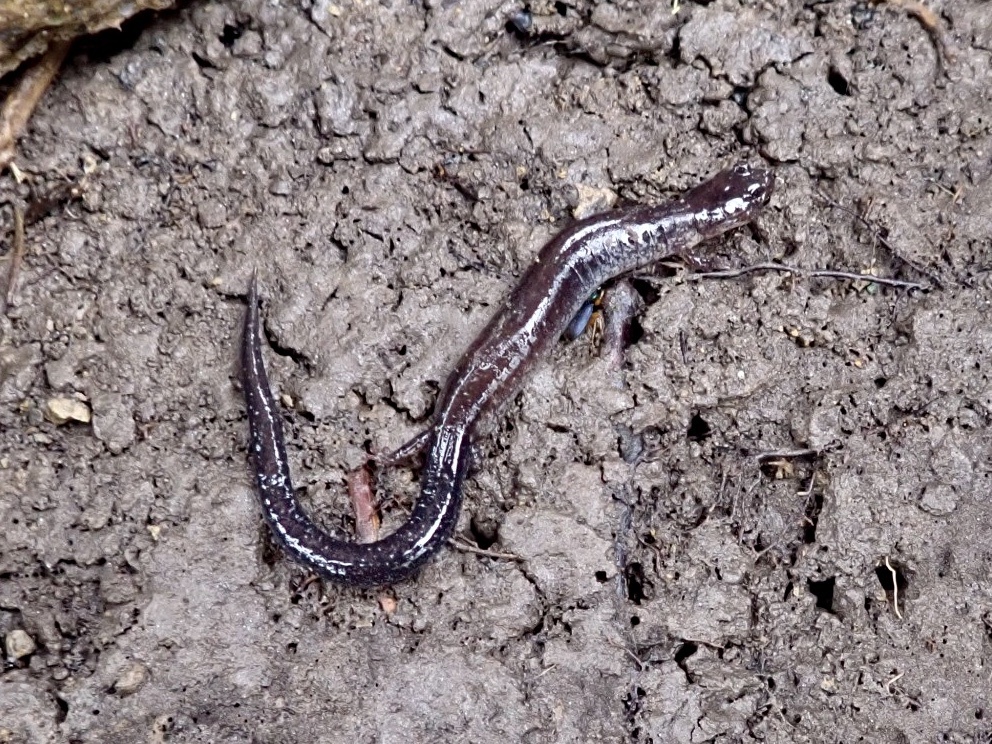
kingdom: Animalia
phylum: Chordata
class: Amphibia
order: Caudata
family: Plethodontidae
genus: Plethodon
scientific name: Plethodon cinereus
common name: Redback salamander
